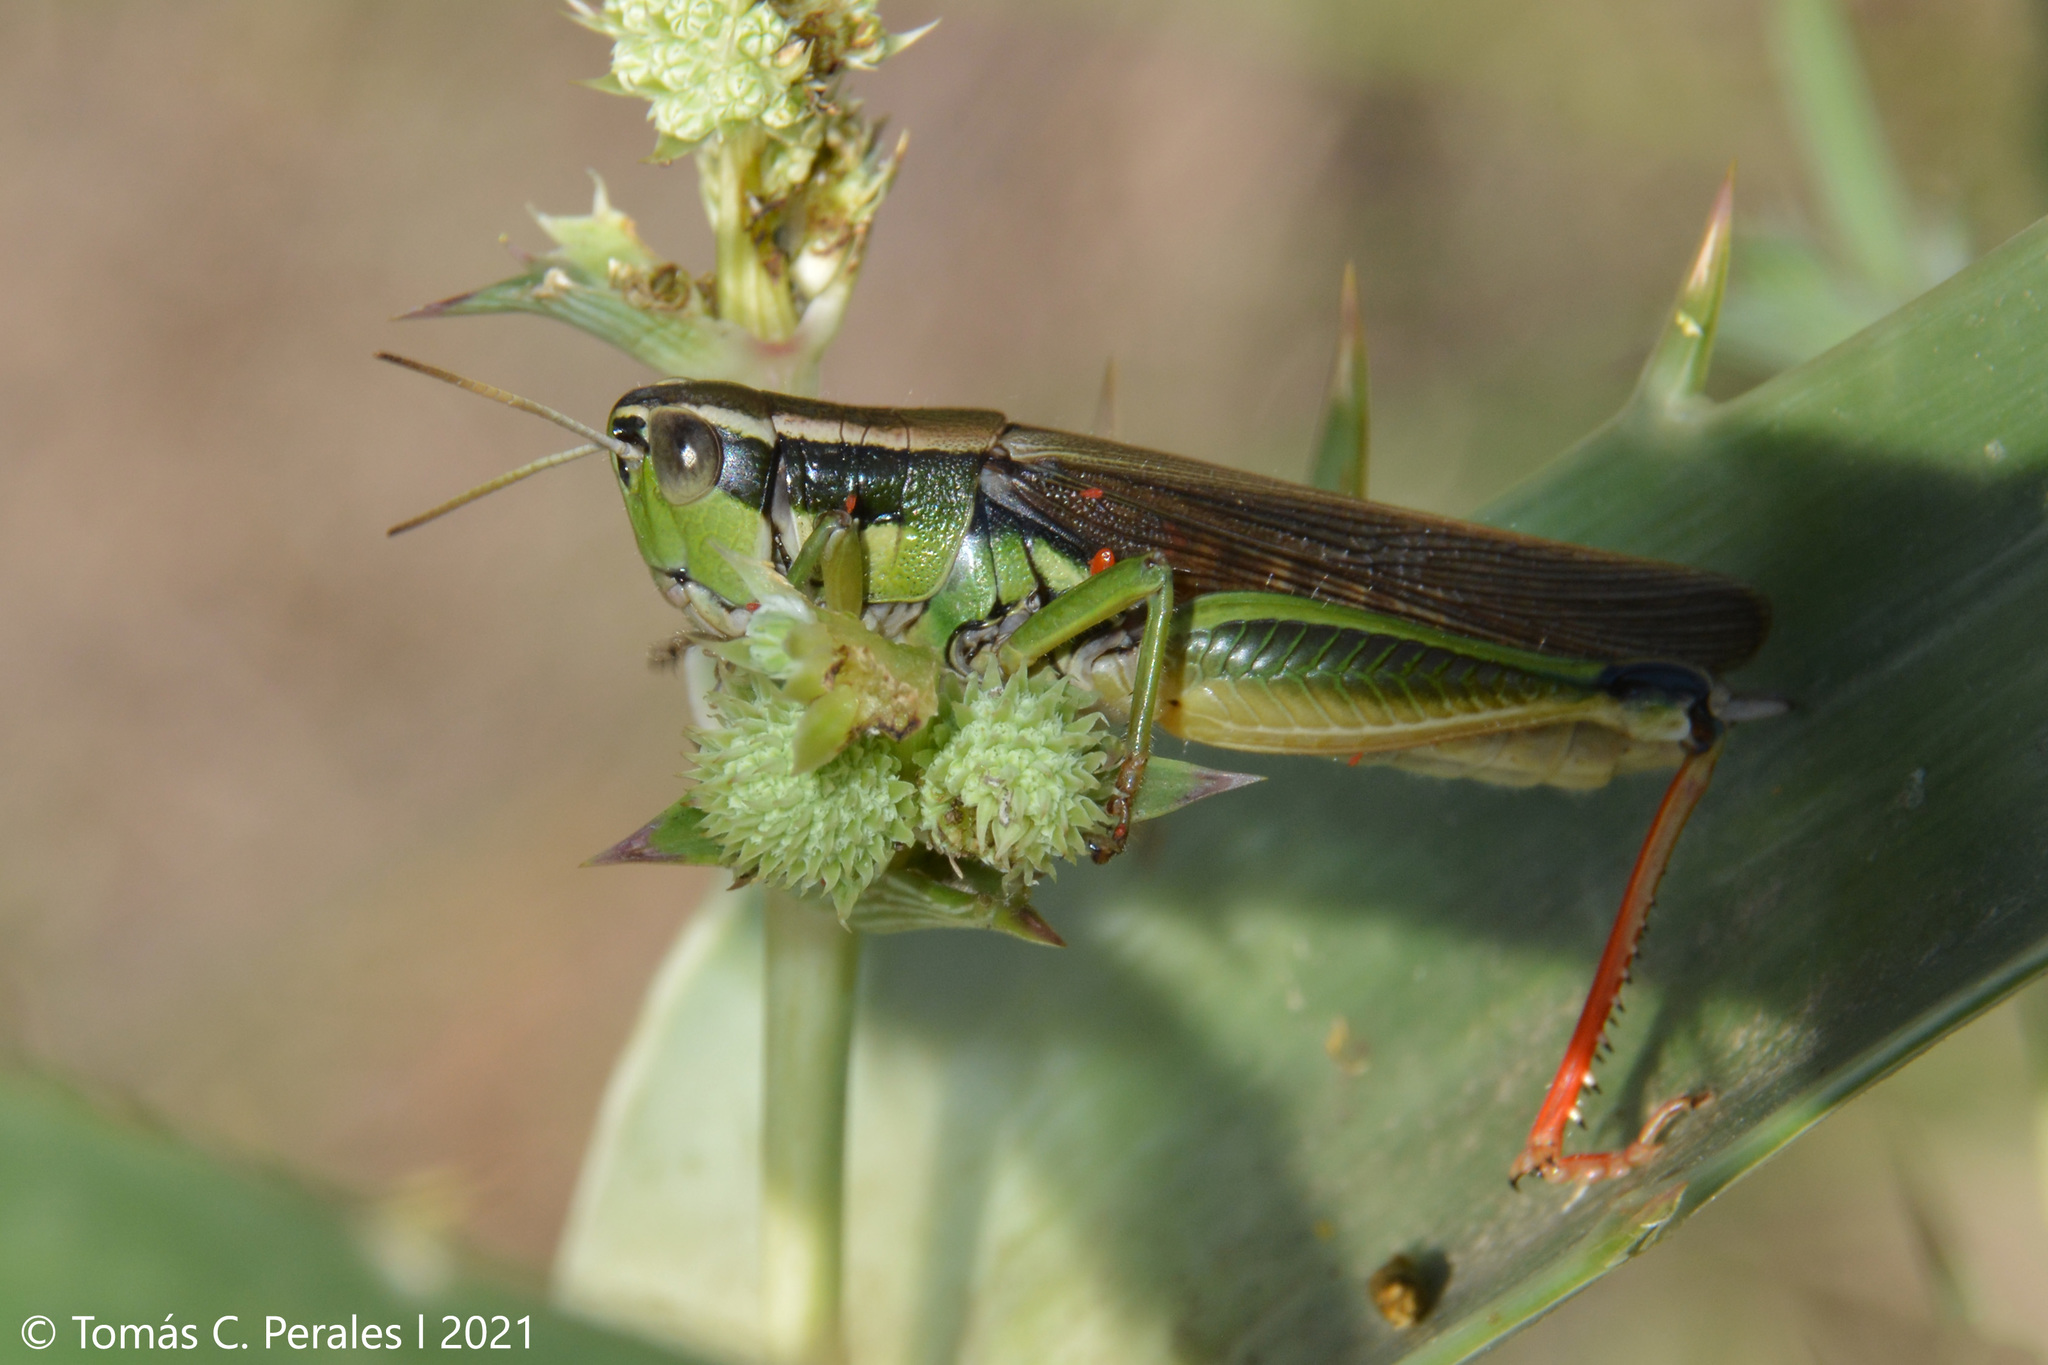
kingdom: Animalia
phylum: Arthropoda
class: Insecta
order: Orthoptera
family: Acrididae
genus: Scotussa
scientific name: Scotussa cliens
